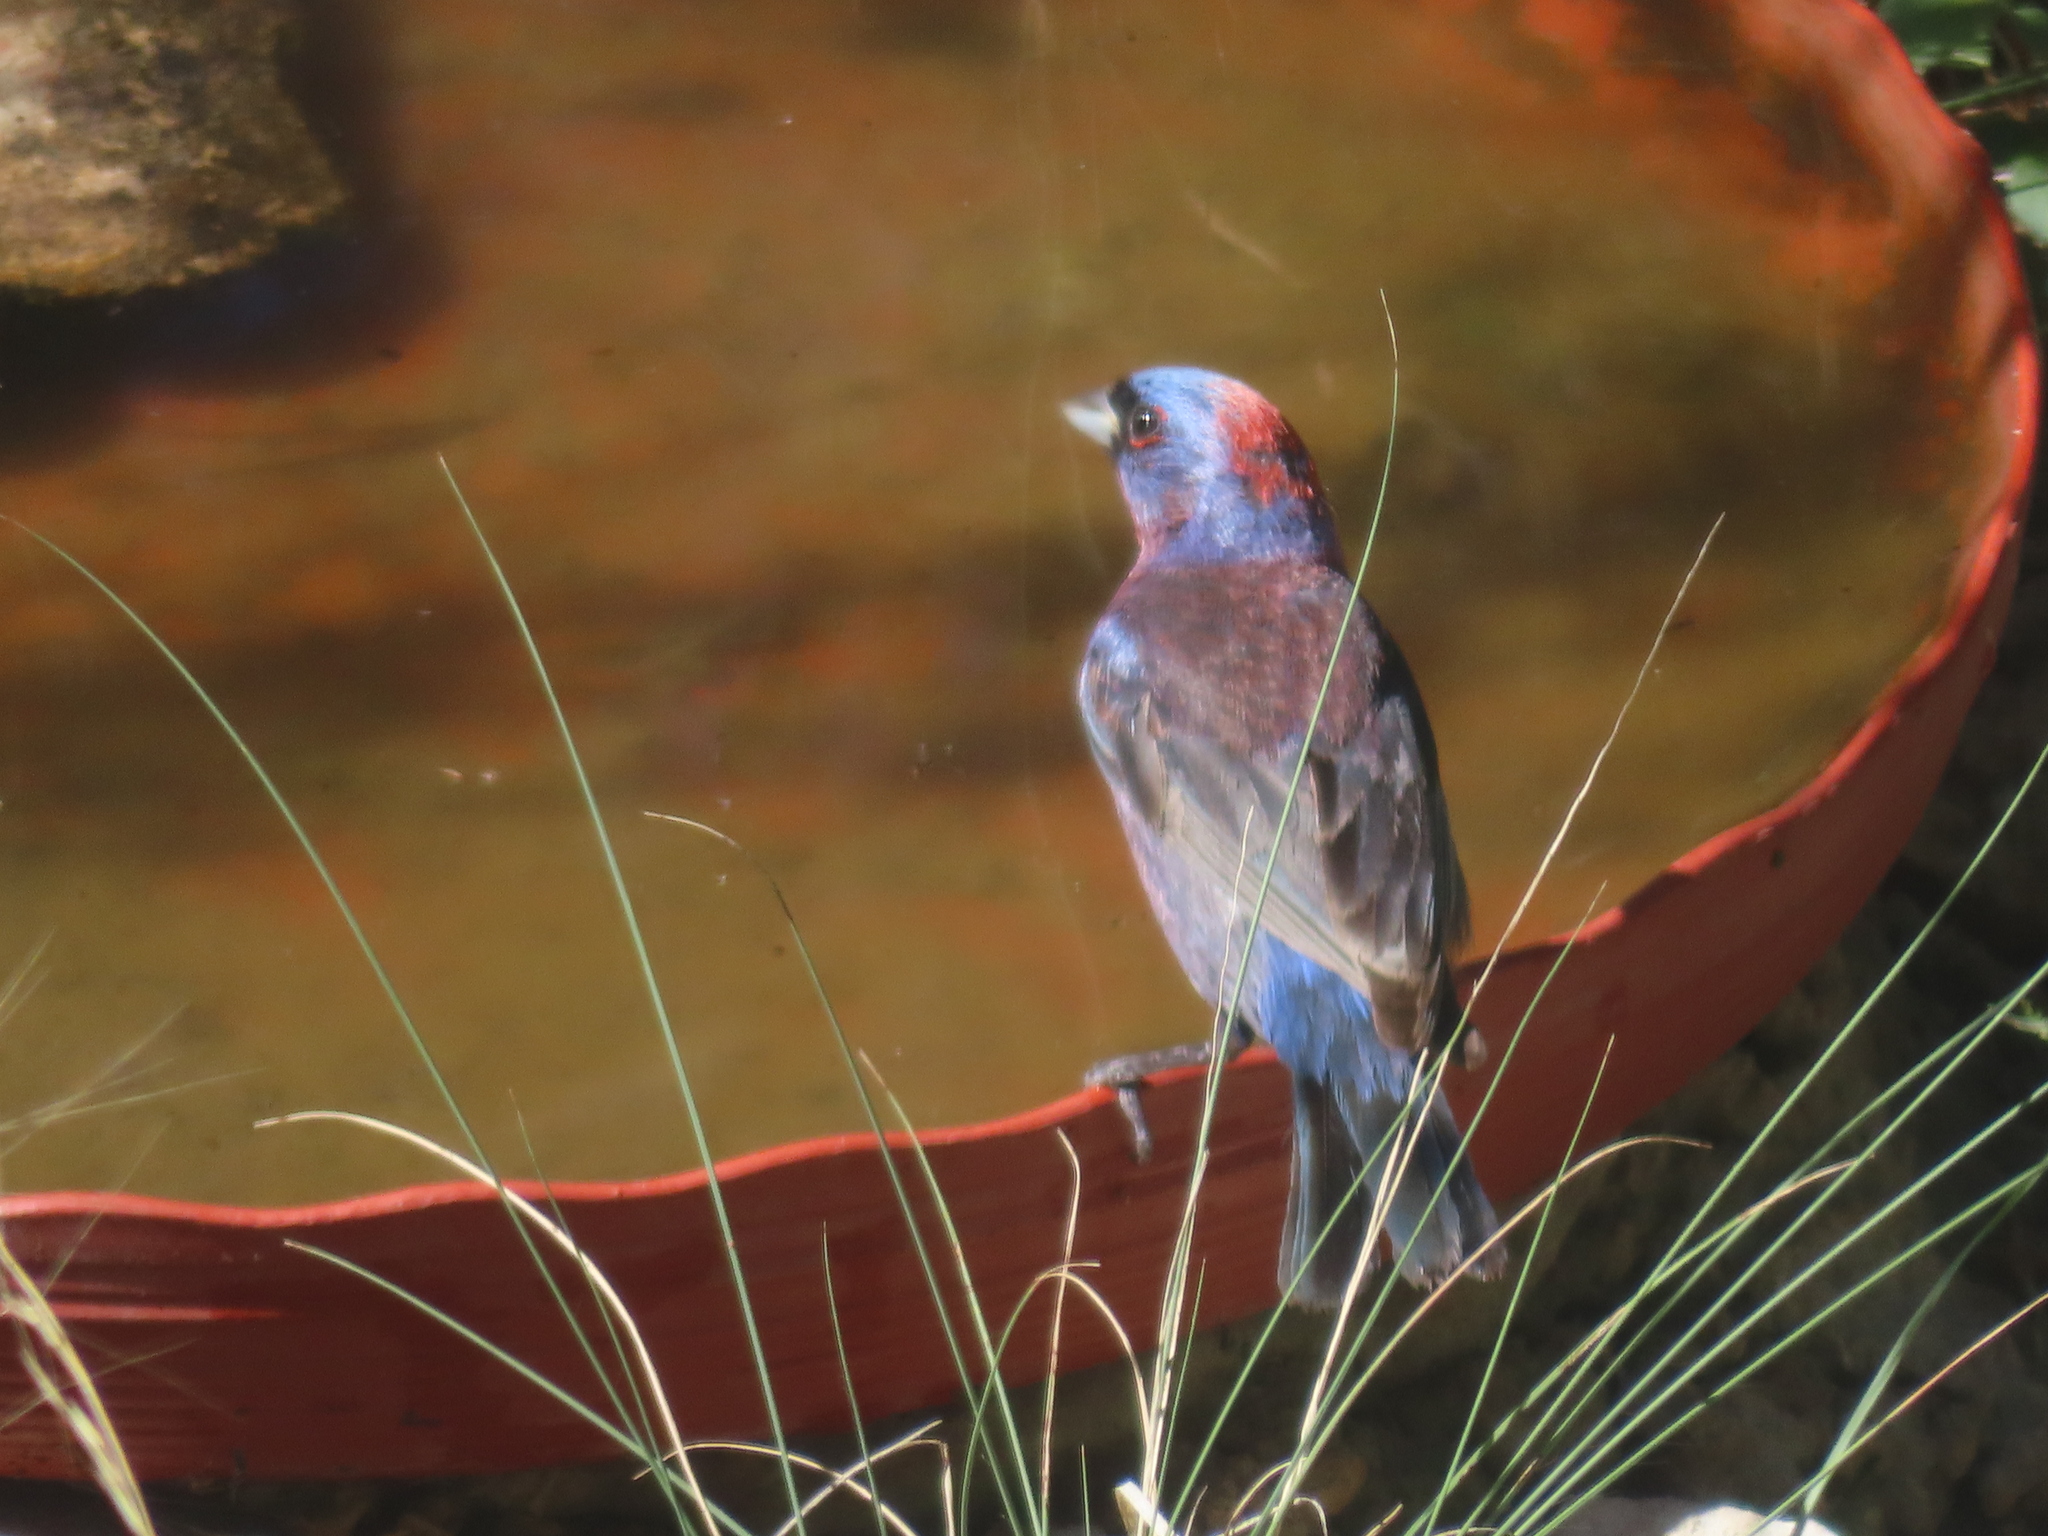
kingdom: Animalia
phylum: Chordata
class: Aves
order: Passeriformes
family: Cardinalidae
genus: Passerina
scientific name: Passerina versicolor
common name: Varied bunting
